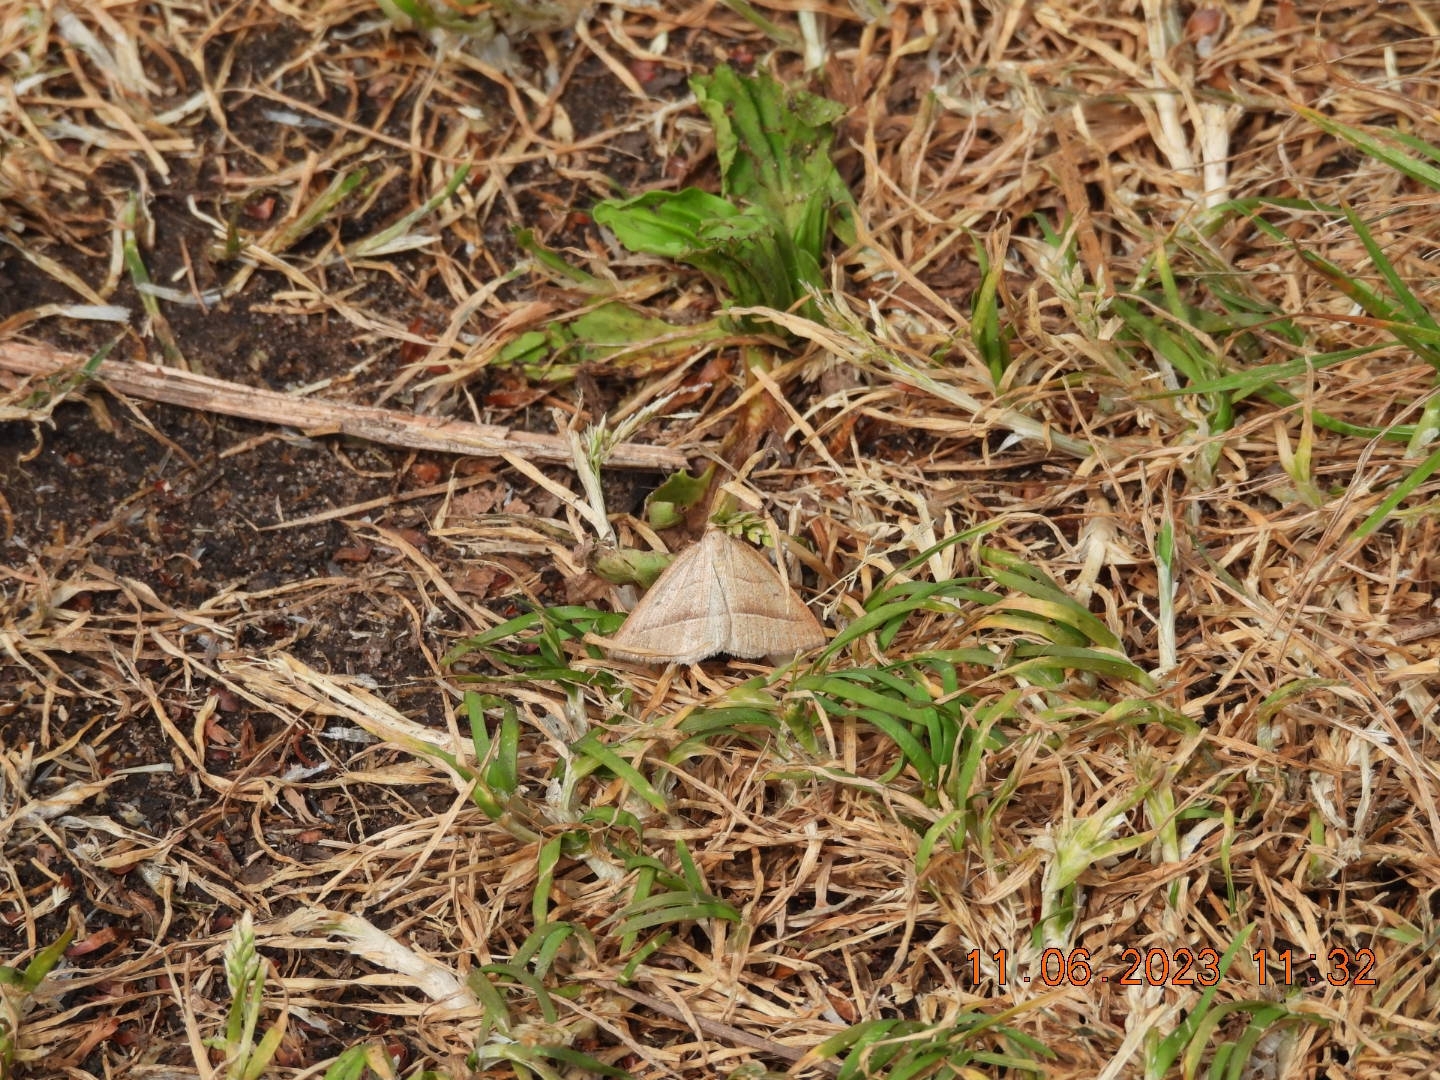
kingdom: Animalia
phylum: Arthropoda
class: Insecta
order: Lepidoptera
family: Pterophoridae
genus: Pterophorus
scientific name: Pterophorus Petrophora chlorosata
